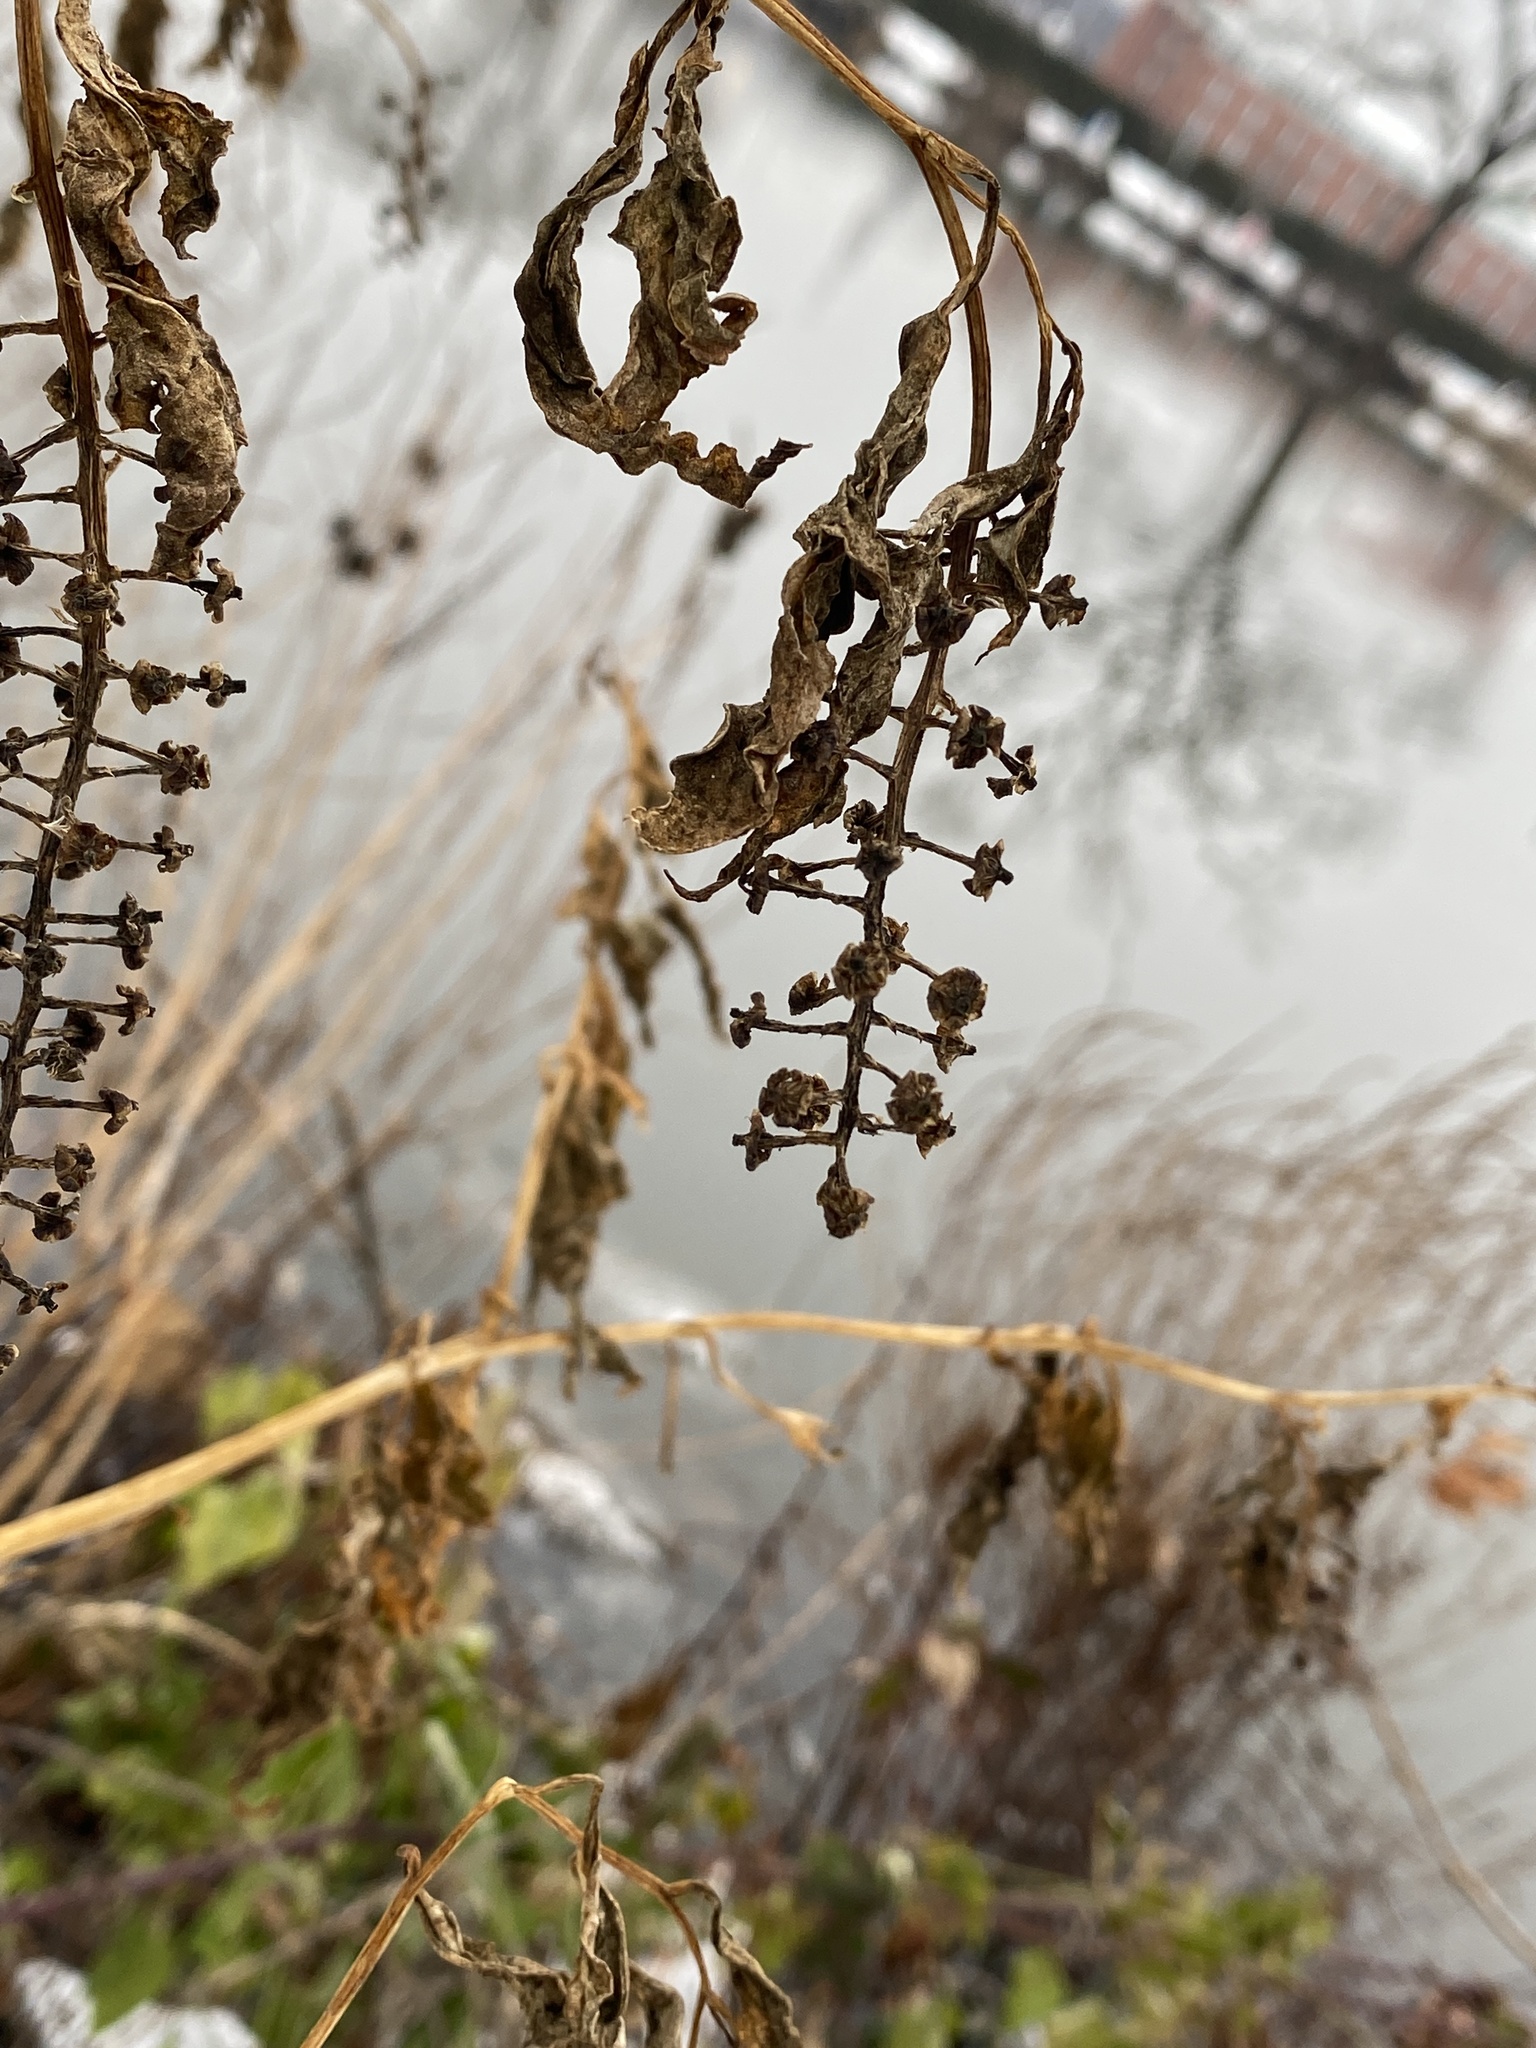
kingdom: Plantae
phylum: Tracheophyta
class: Magnoliopsida
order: Caryophyllales
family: Phytolaccaceae
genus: Phytolacca
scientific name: Phytolacca americana
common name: American pokeweed
